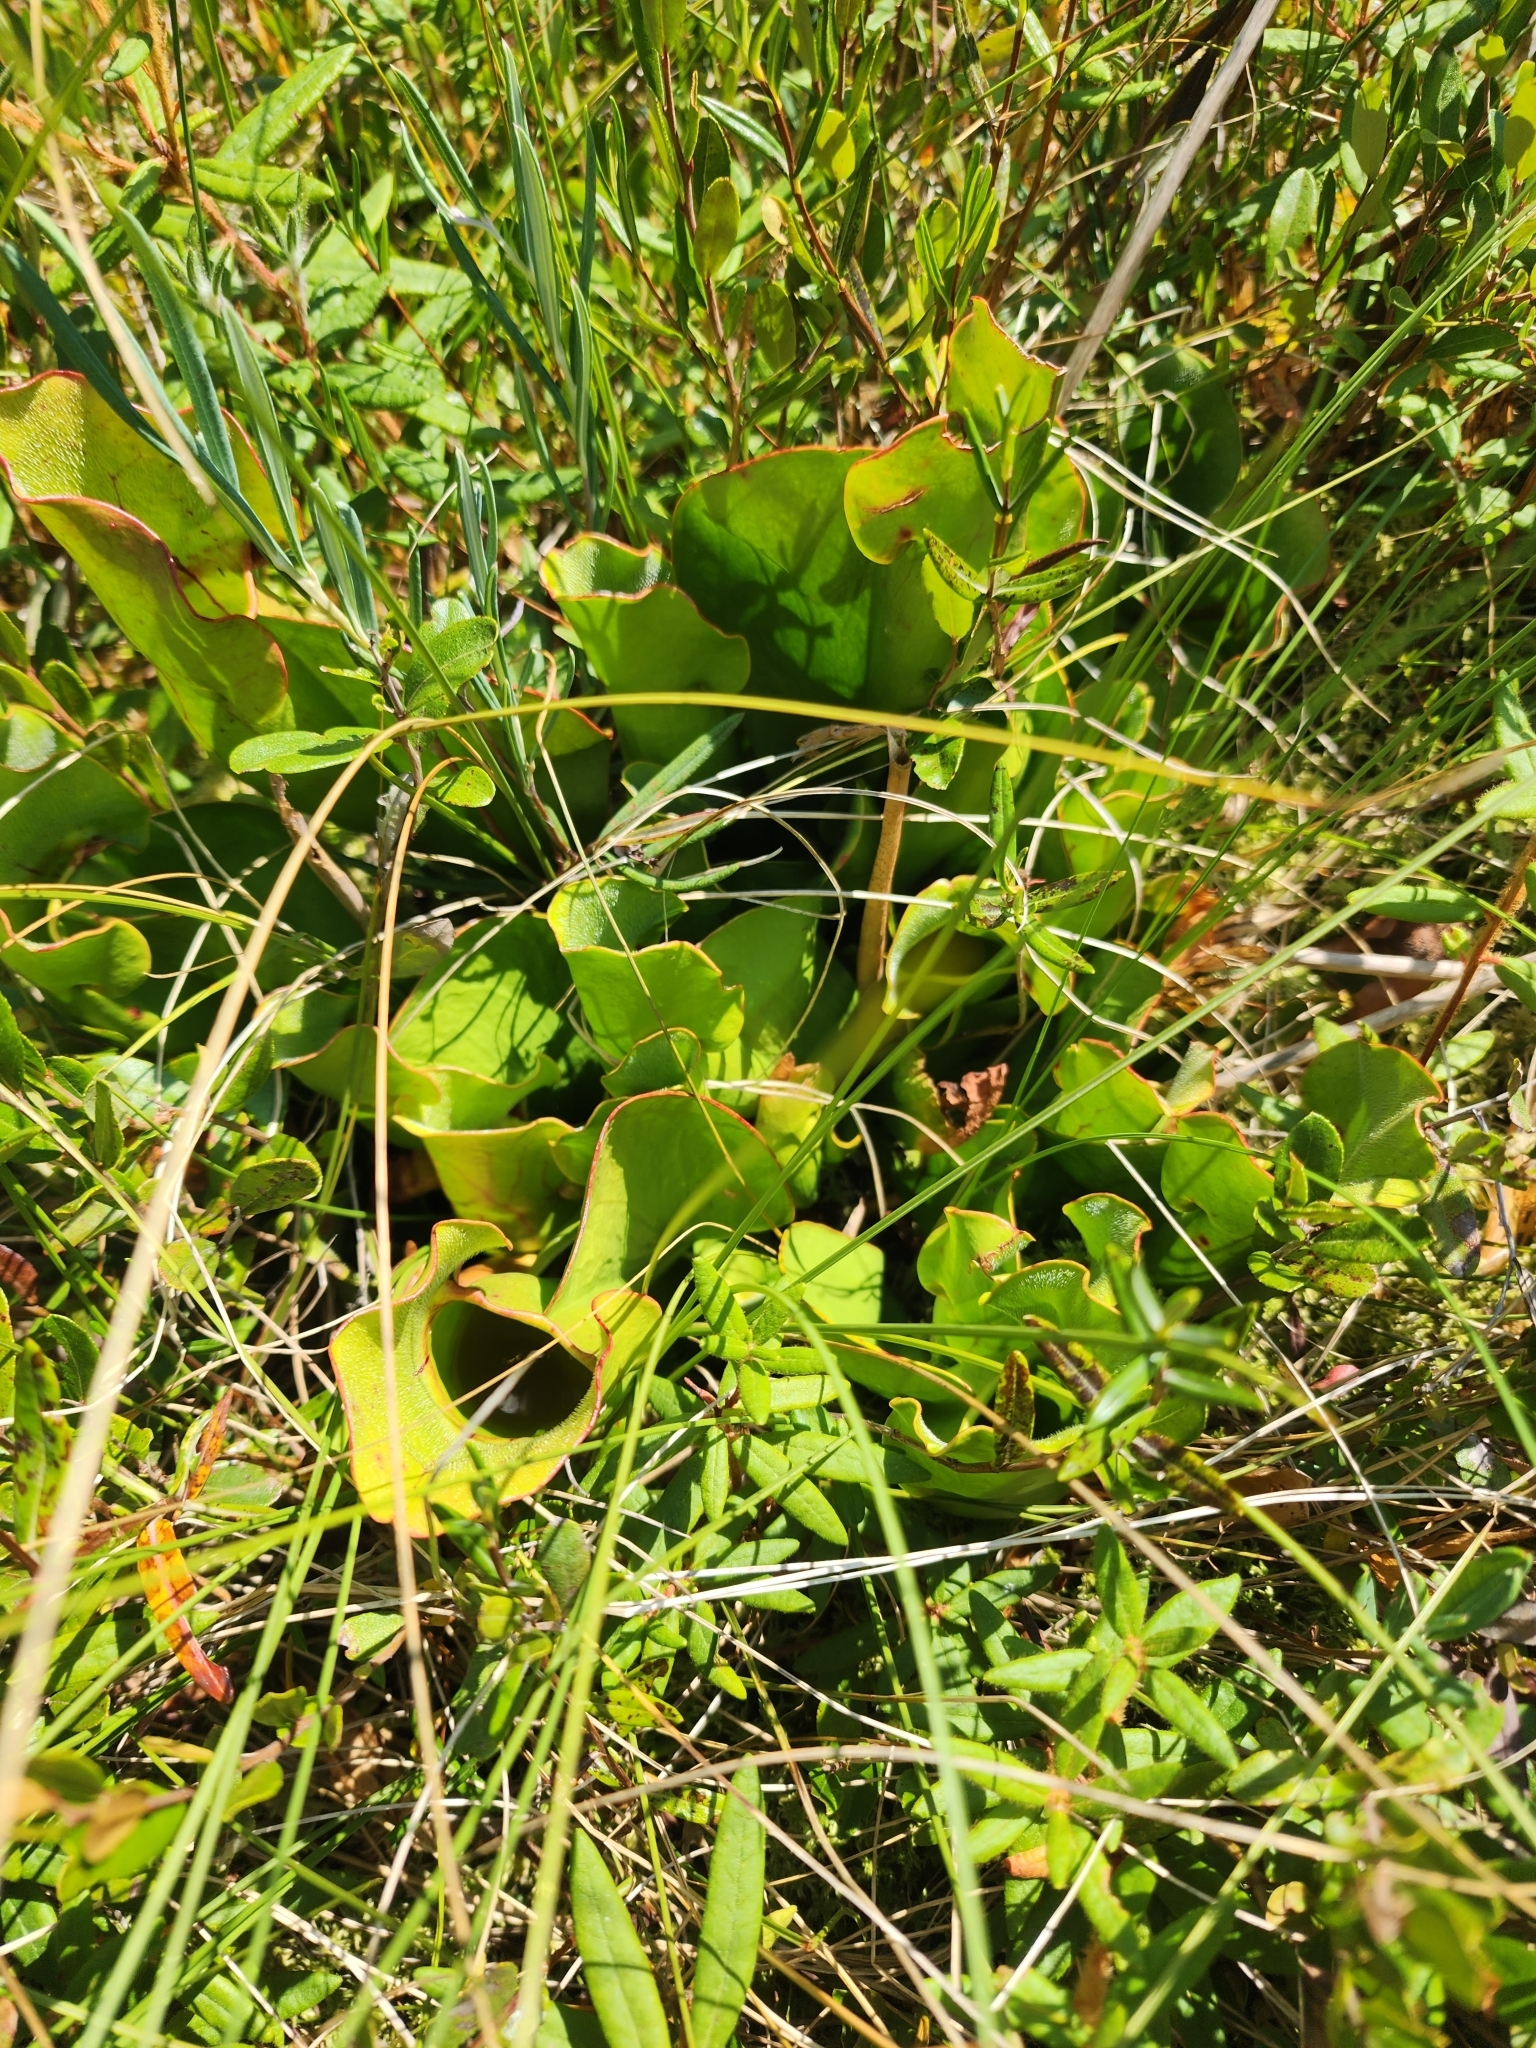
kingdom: Plantae
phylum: Tracheophyta
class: Magnoliopsida
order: Ericales
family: Sarraceniaceae
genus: Sarracenia
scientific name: Sarracenia purpurea
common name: Pitcherplant
